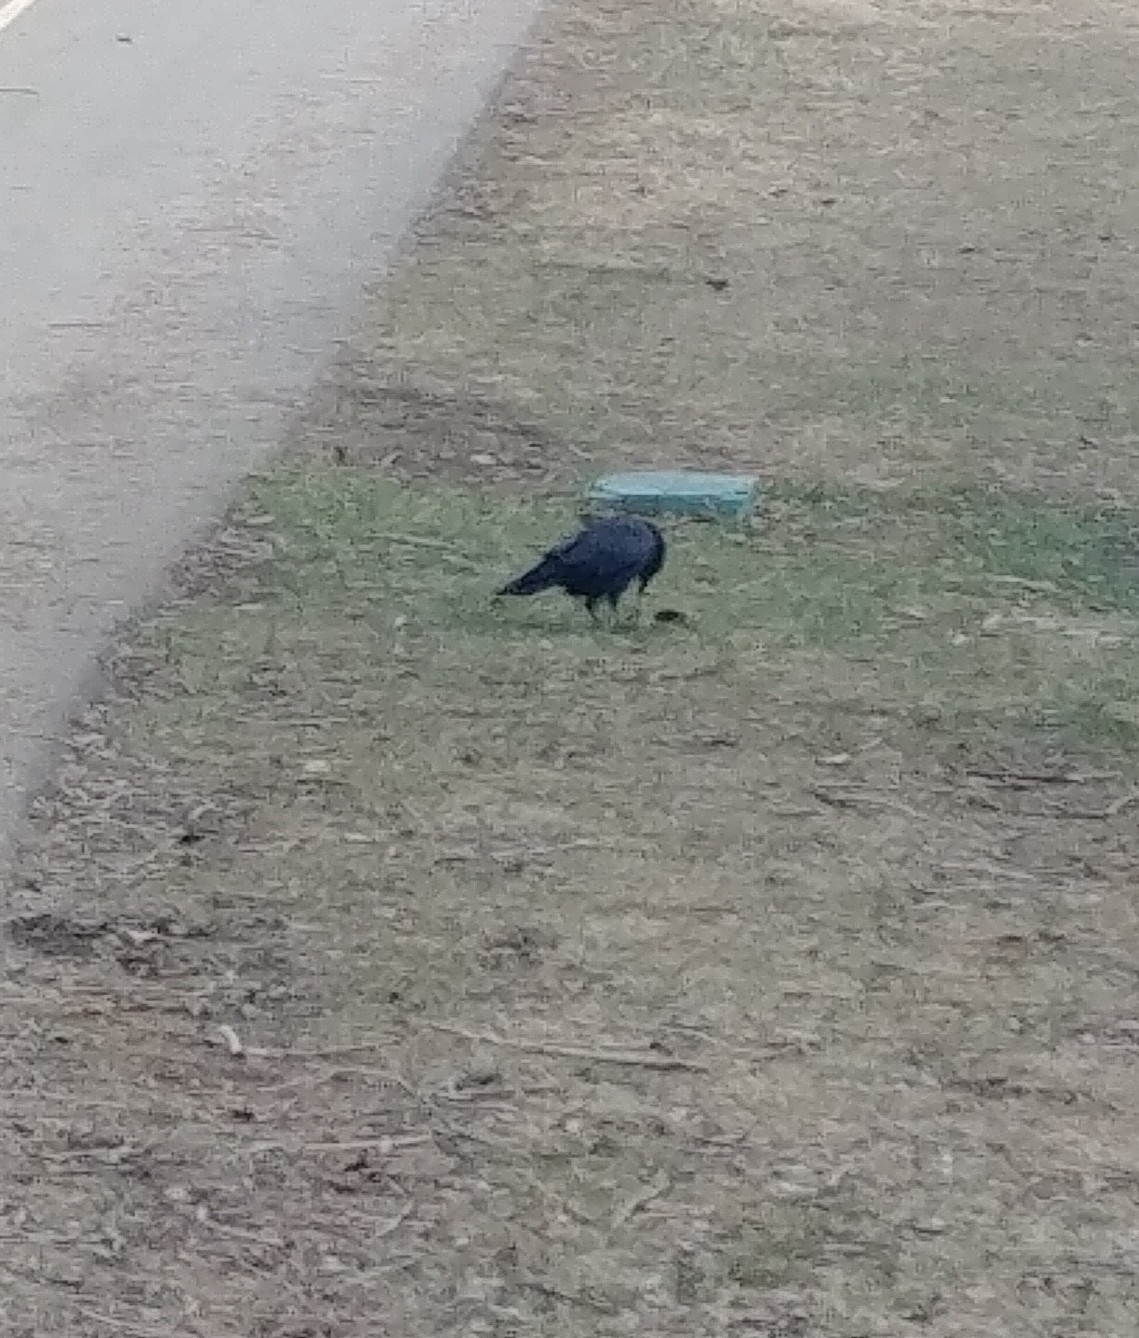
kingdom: Animalia
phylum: Chordata
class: Aves
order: Passeriformes
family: Corvidae
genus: Corvus
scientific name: Corvus brachyrhynchos
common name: American crow
